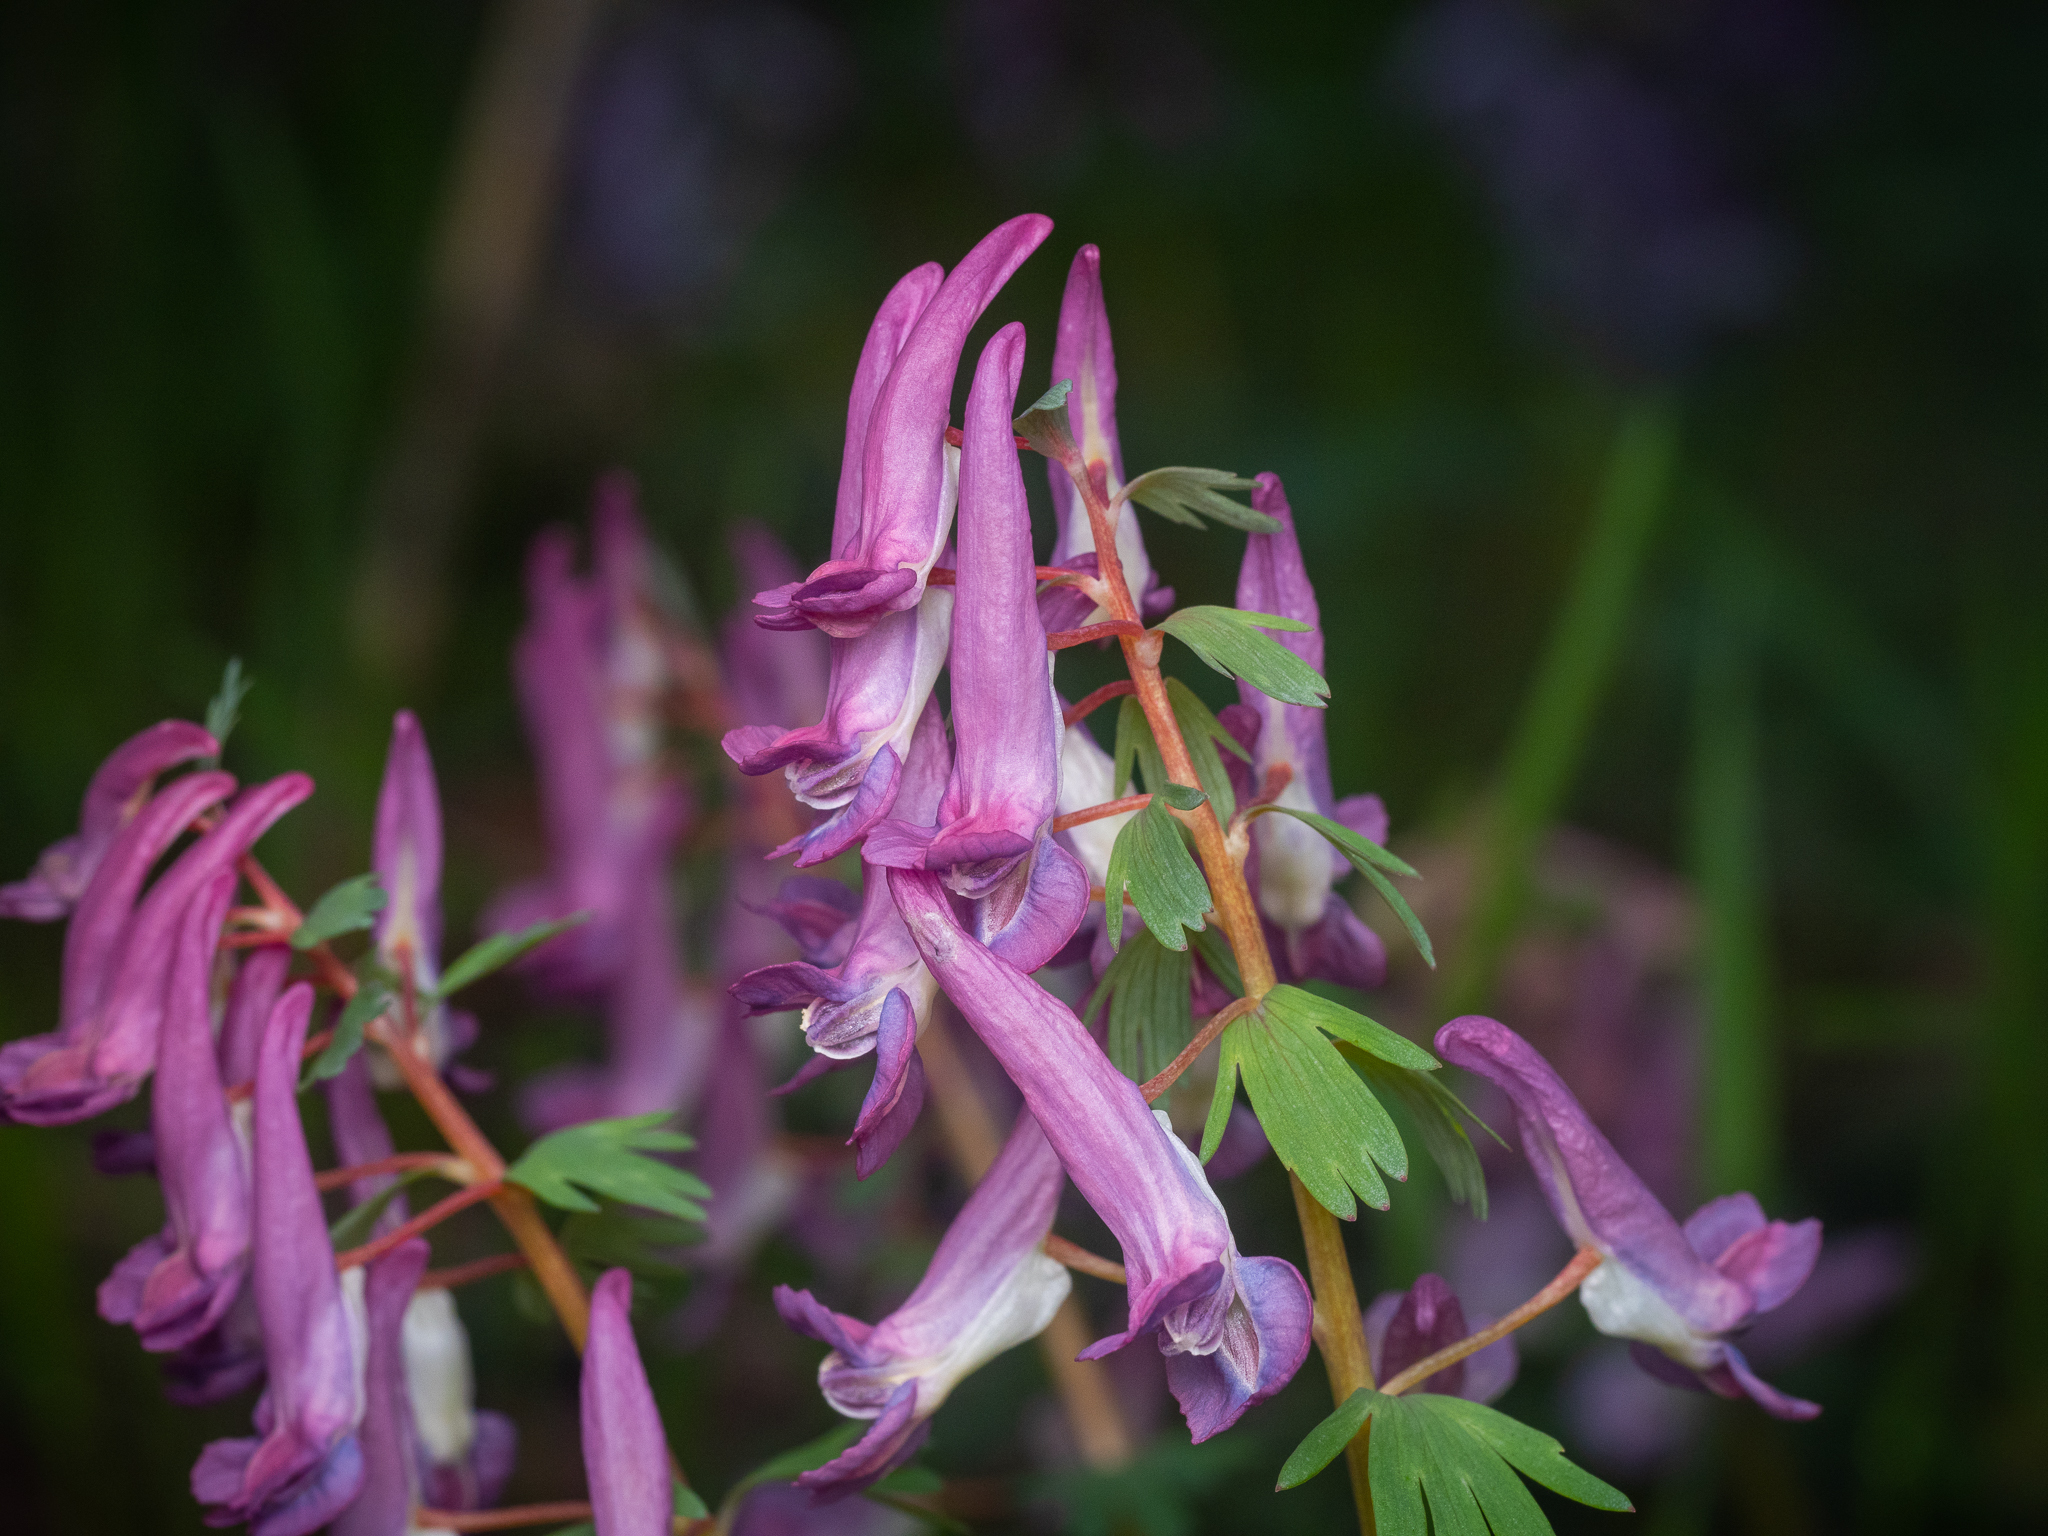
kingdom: Plantae
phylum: Tracheophyta
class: Magnoliopsida
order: Ranunculales
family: Papaveraceae
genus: Corydalis
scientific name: Corydalis solida
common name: Bird-in-a-bush
